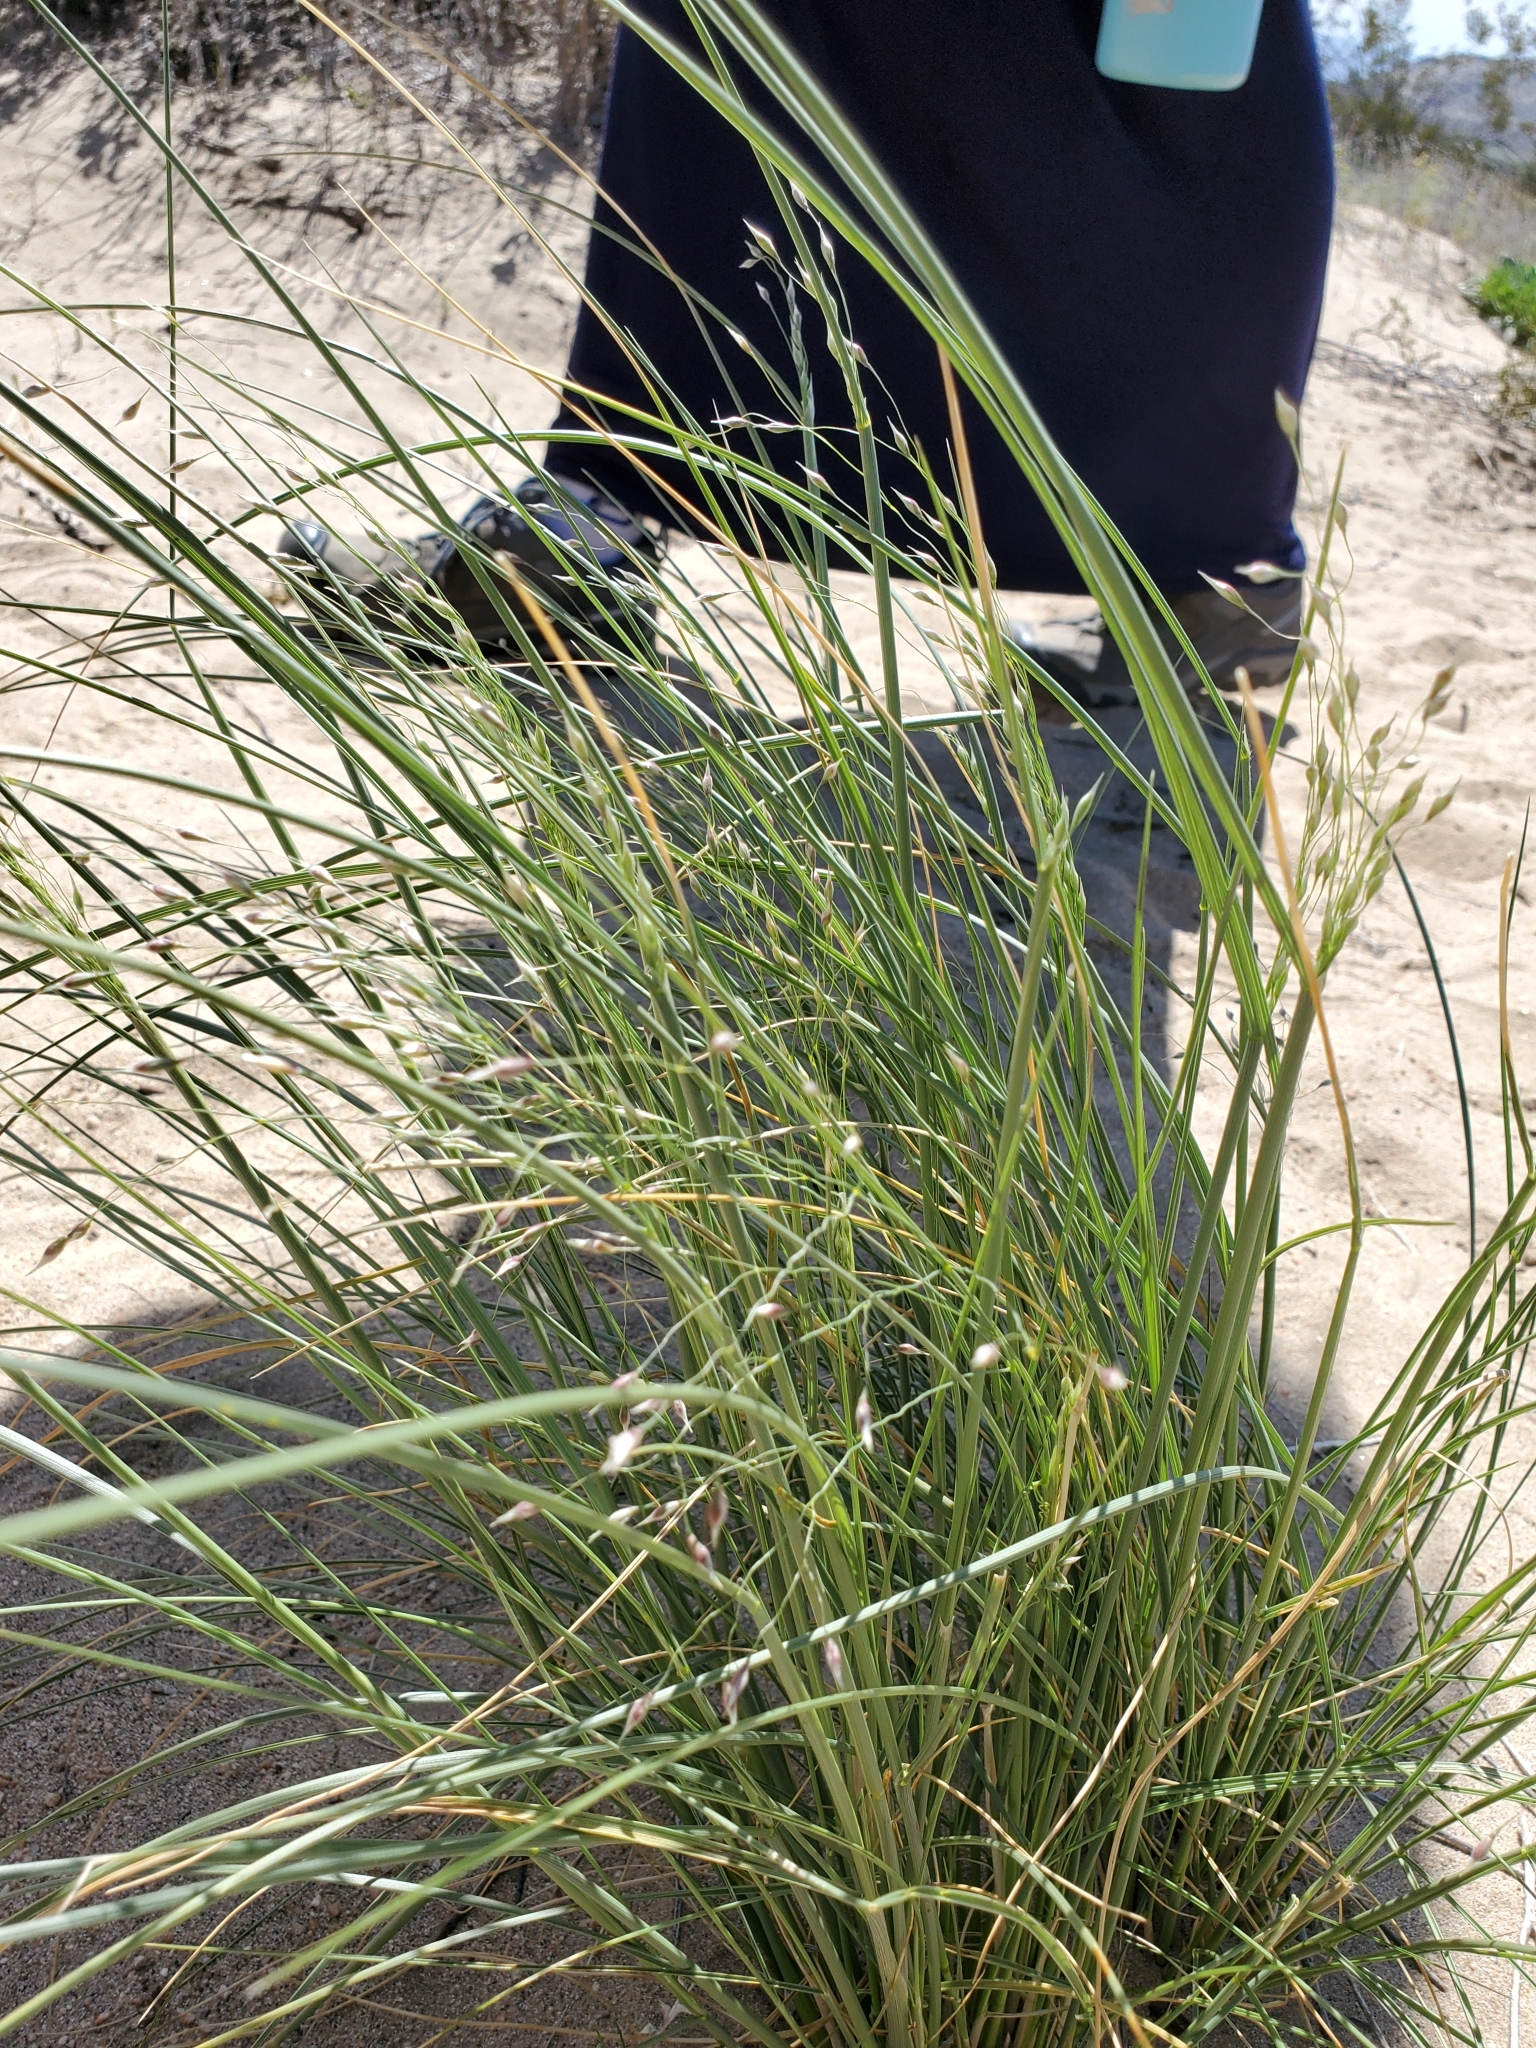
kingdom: Plantae
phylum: Tracheophyta
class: Liliopsida
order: Poales
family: Poaceae
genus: Eriocoma
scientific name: Eriocoma hymenoides
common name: Indian mountain ricegrass
